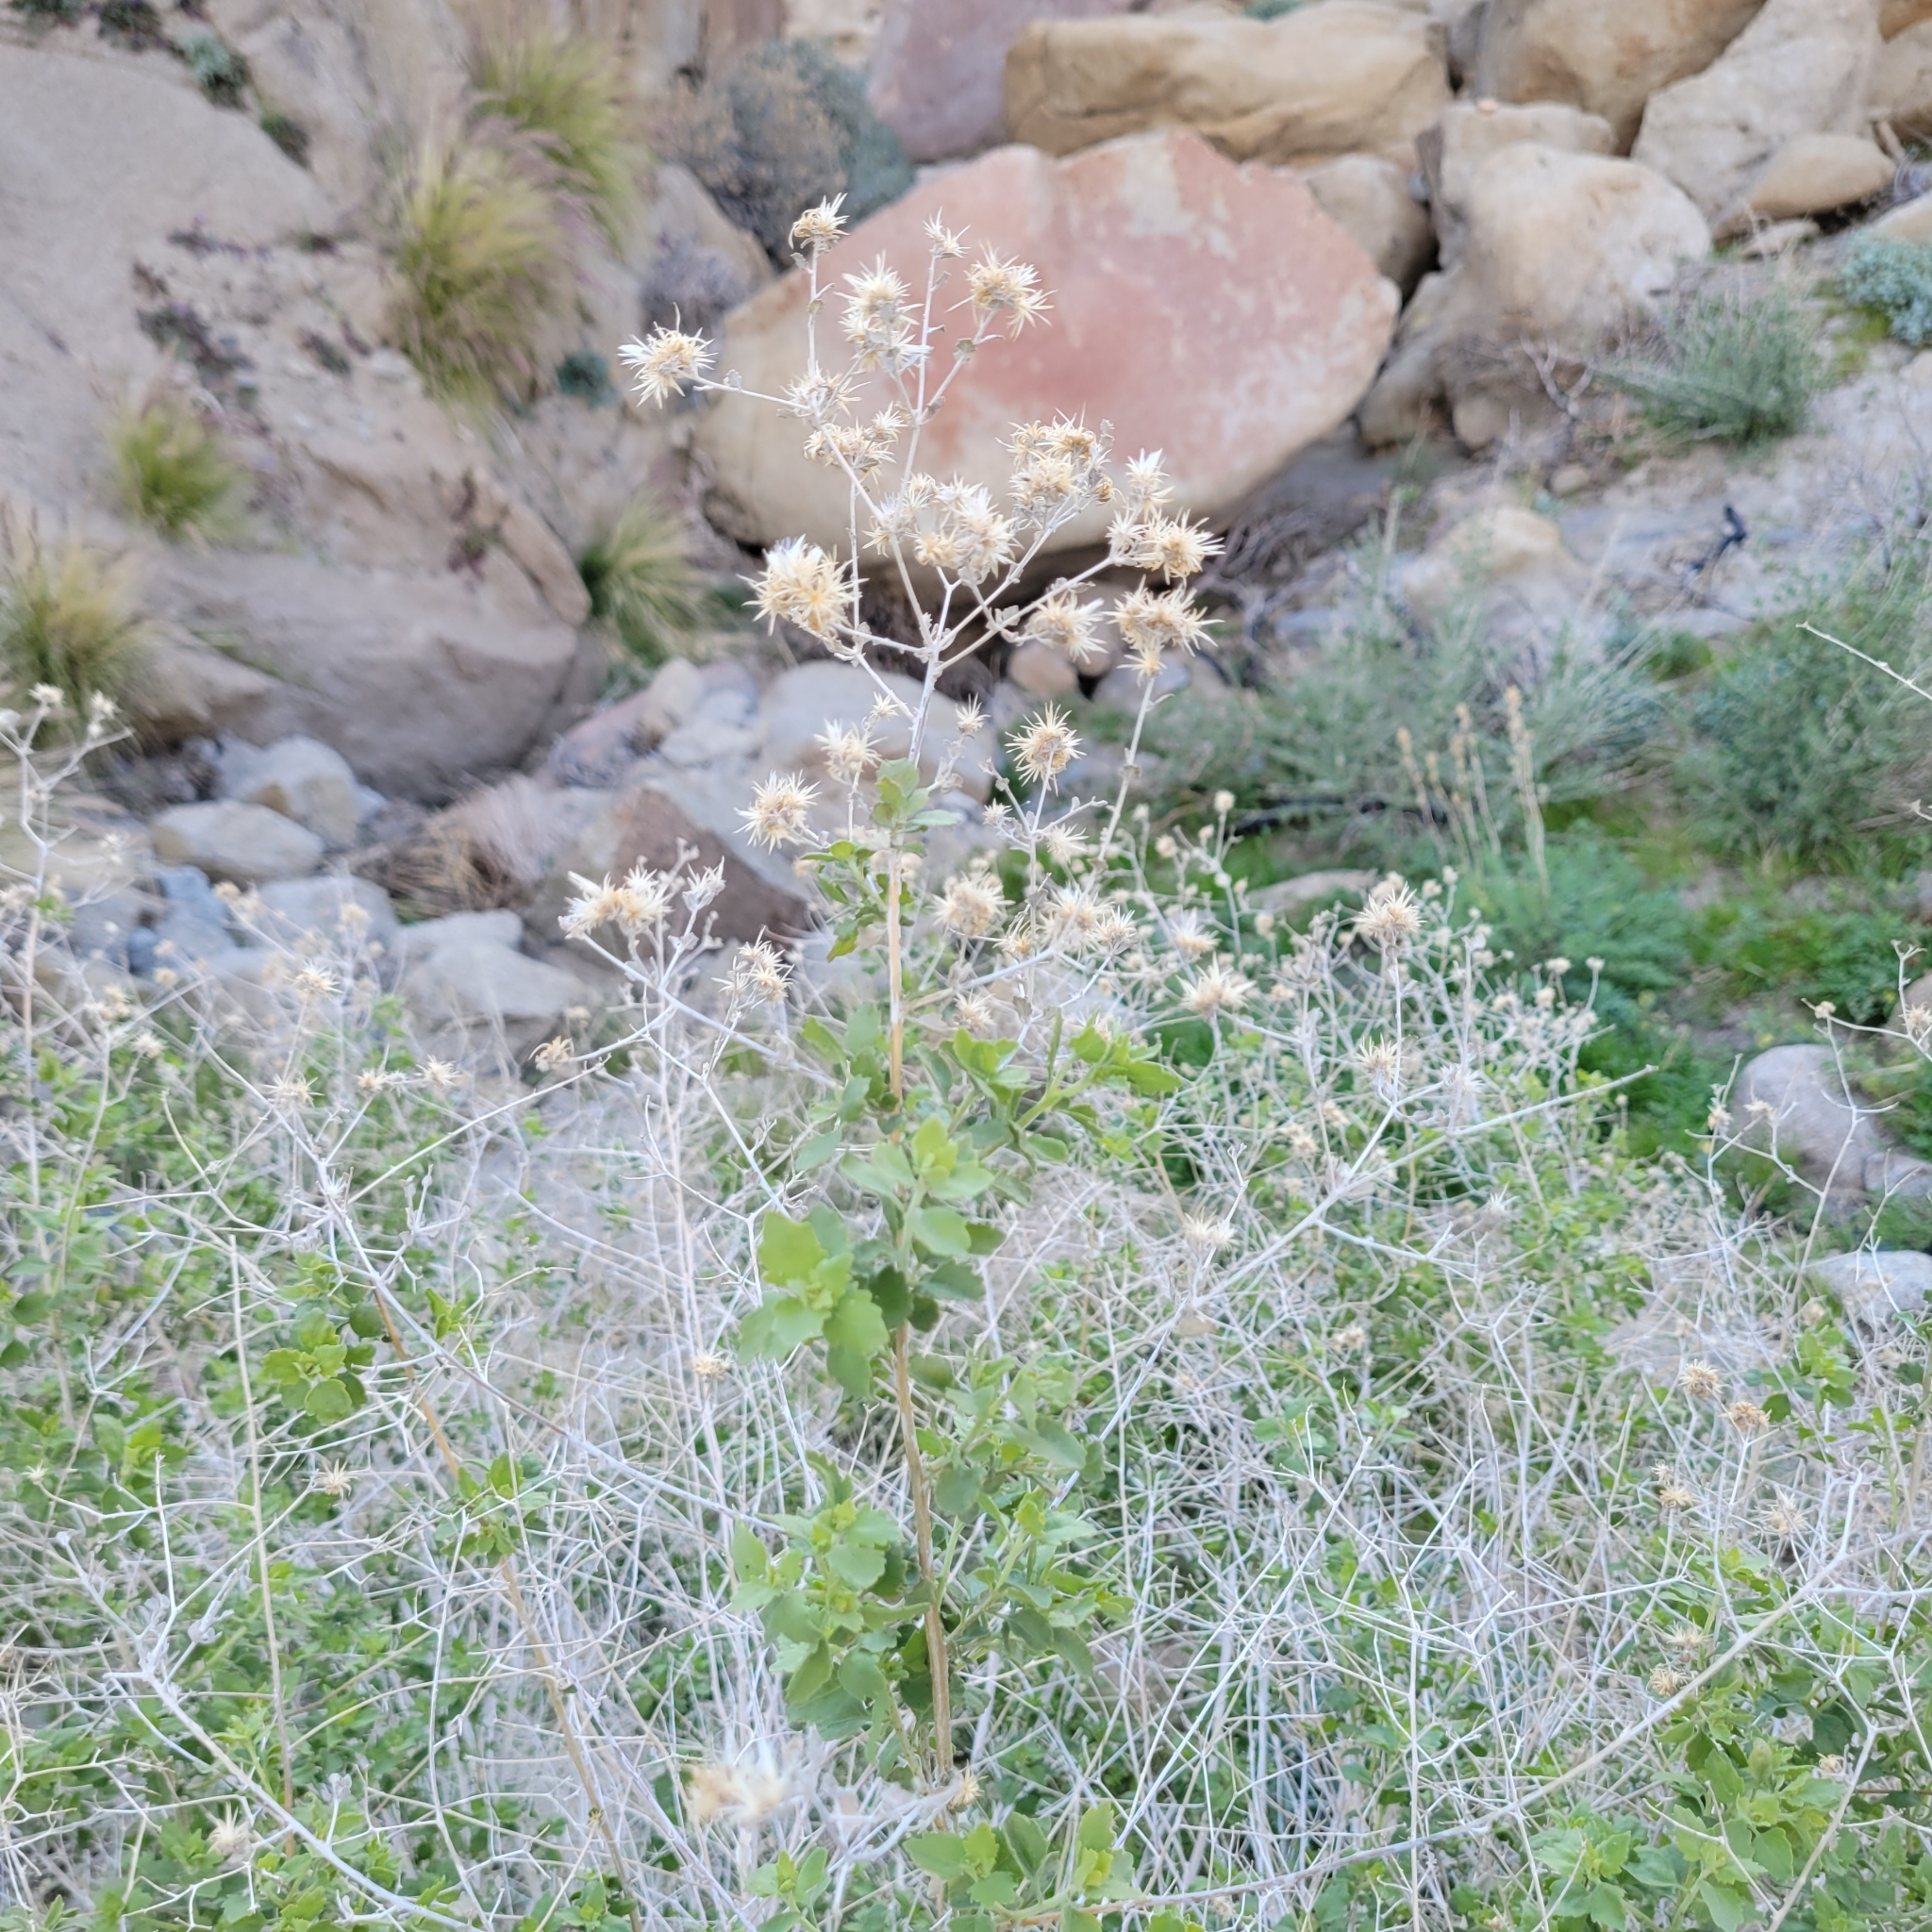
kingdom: Plantae
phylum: Tracheophyta
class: Magnoliopsida
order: Asterales
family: Asteraceae
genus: Brickellia
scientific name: Brickellia desertorum
